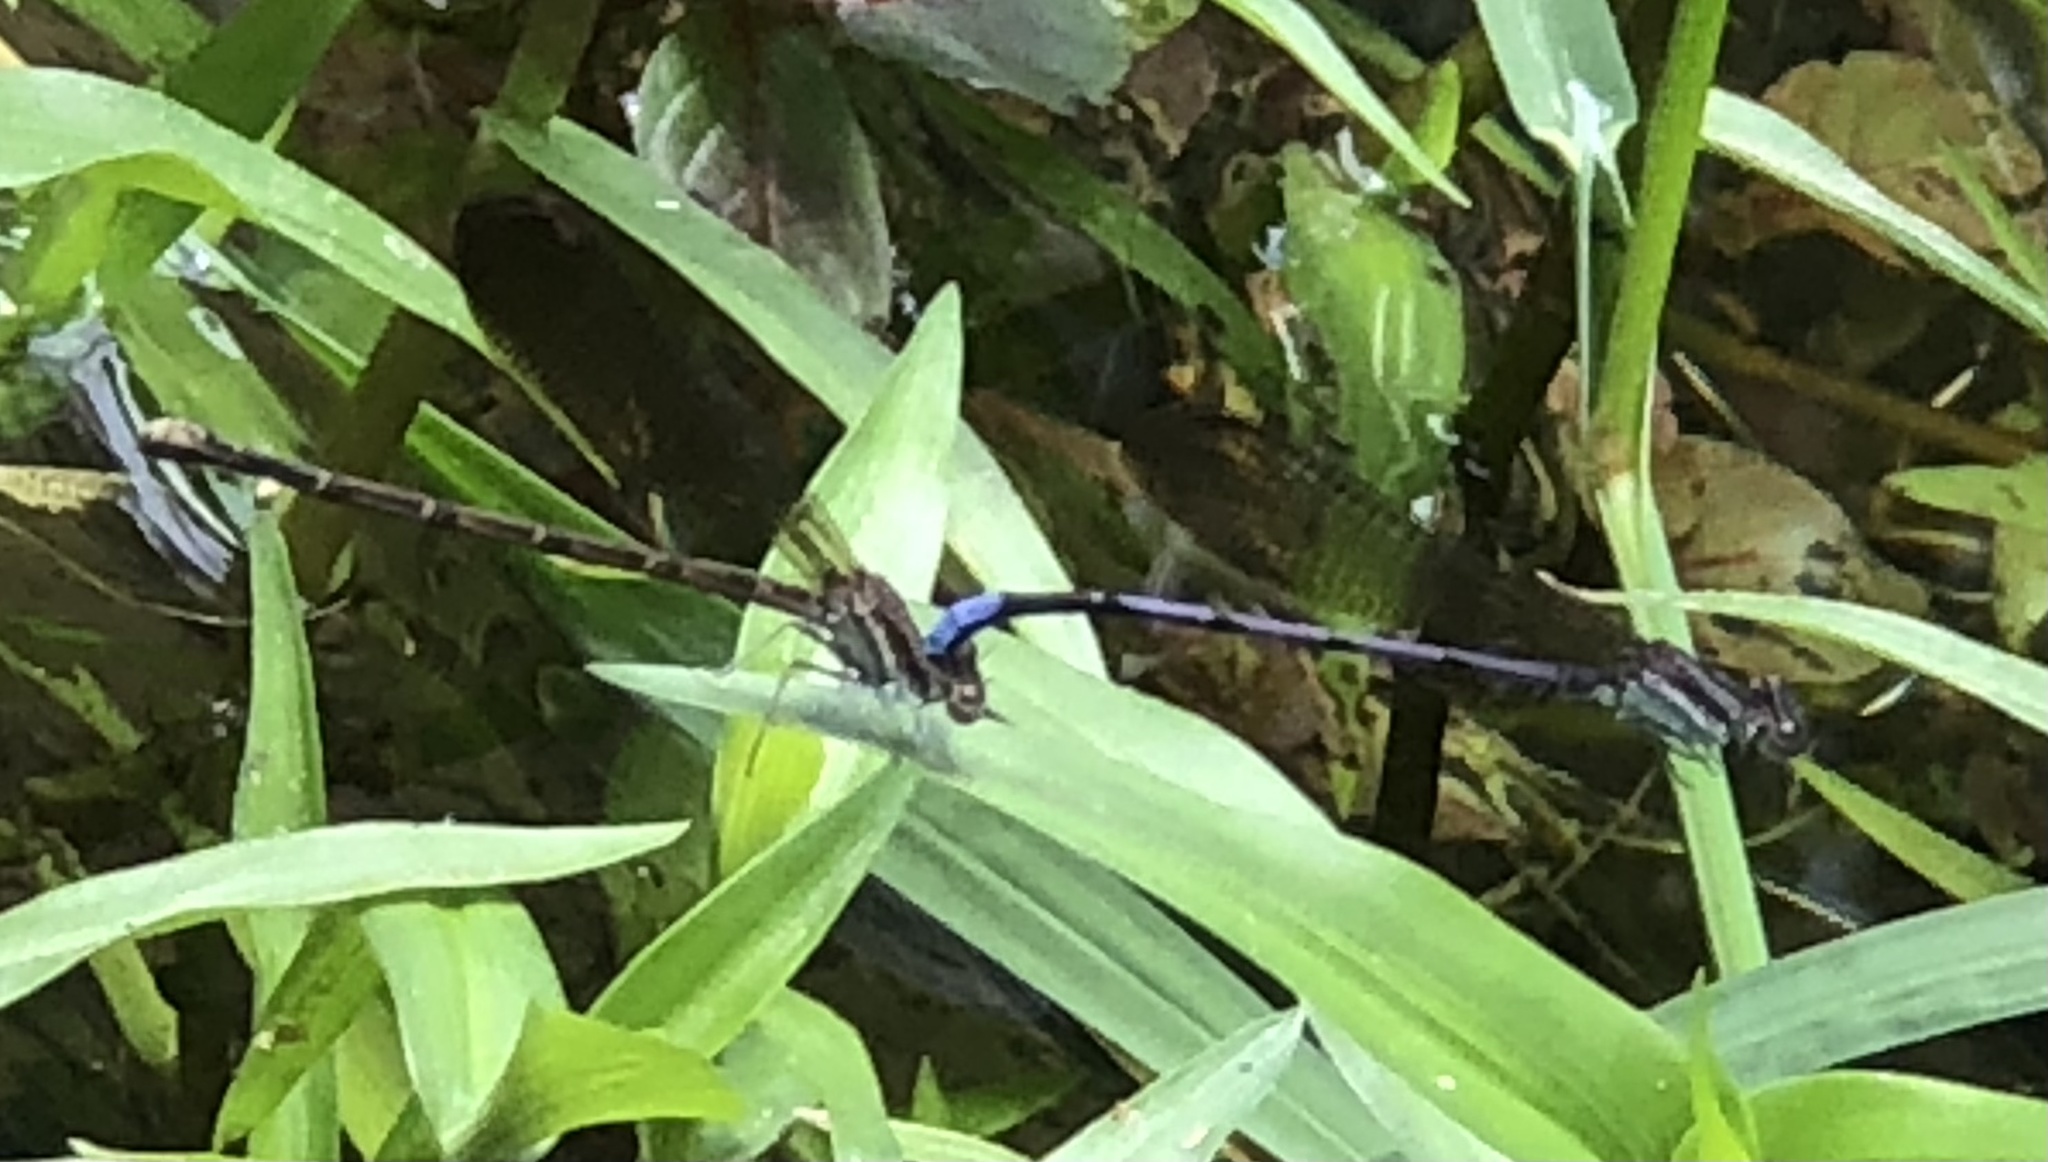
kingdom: Animalia
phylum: Arthropoda
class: Insecta
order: Odonata
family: Coenagrionidae
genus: Argia
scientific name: Argia fumipennis
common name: Variable dancer
